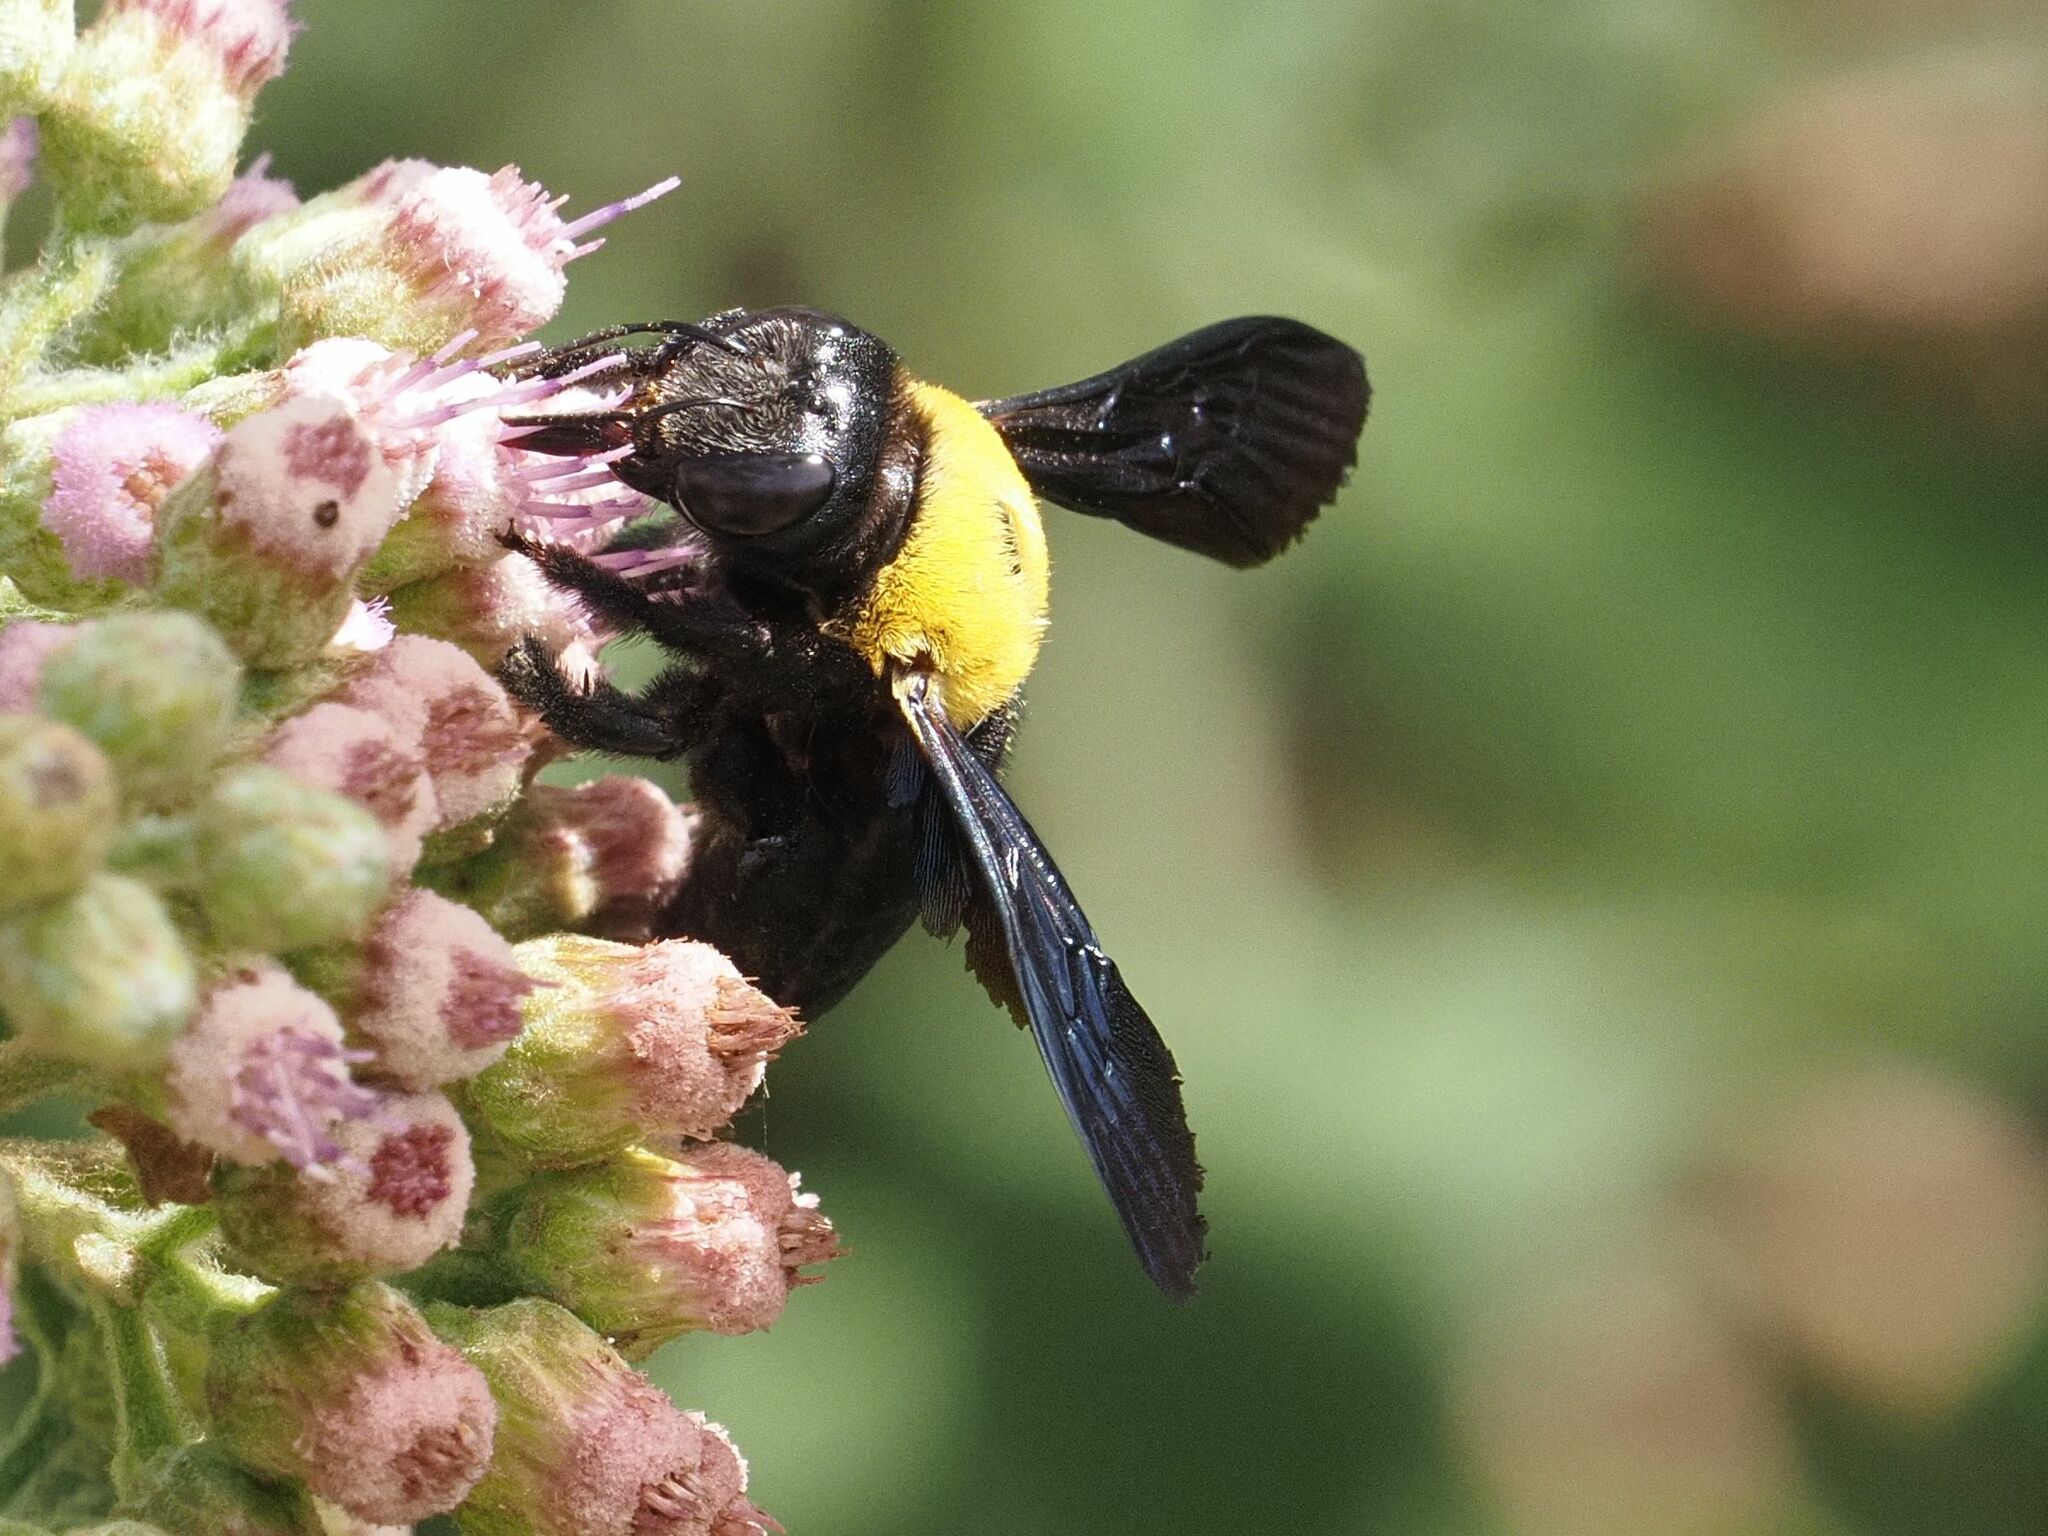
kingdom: Animalia
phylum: Arthropoda
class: Insecta
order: Hymenoptera
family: Apidae
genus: Xylocopa
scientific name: Xylocopa pubescens
